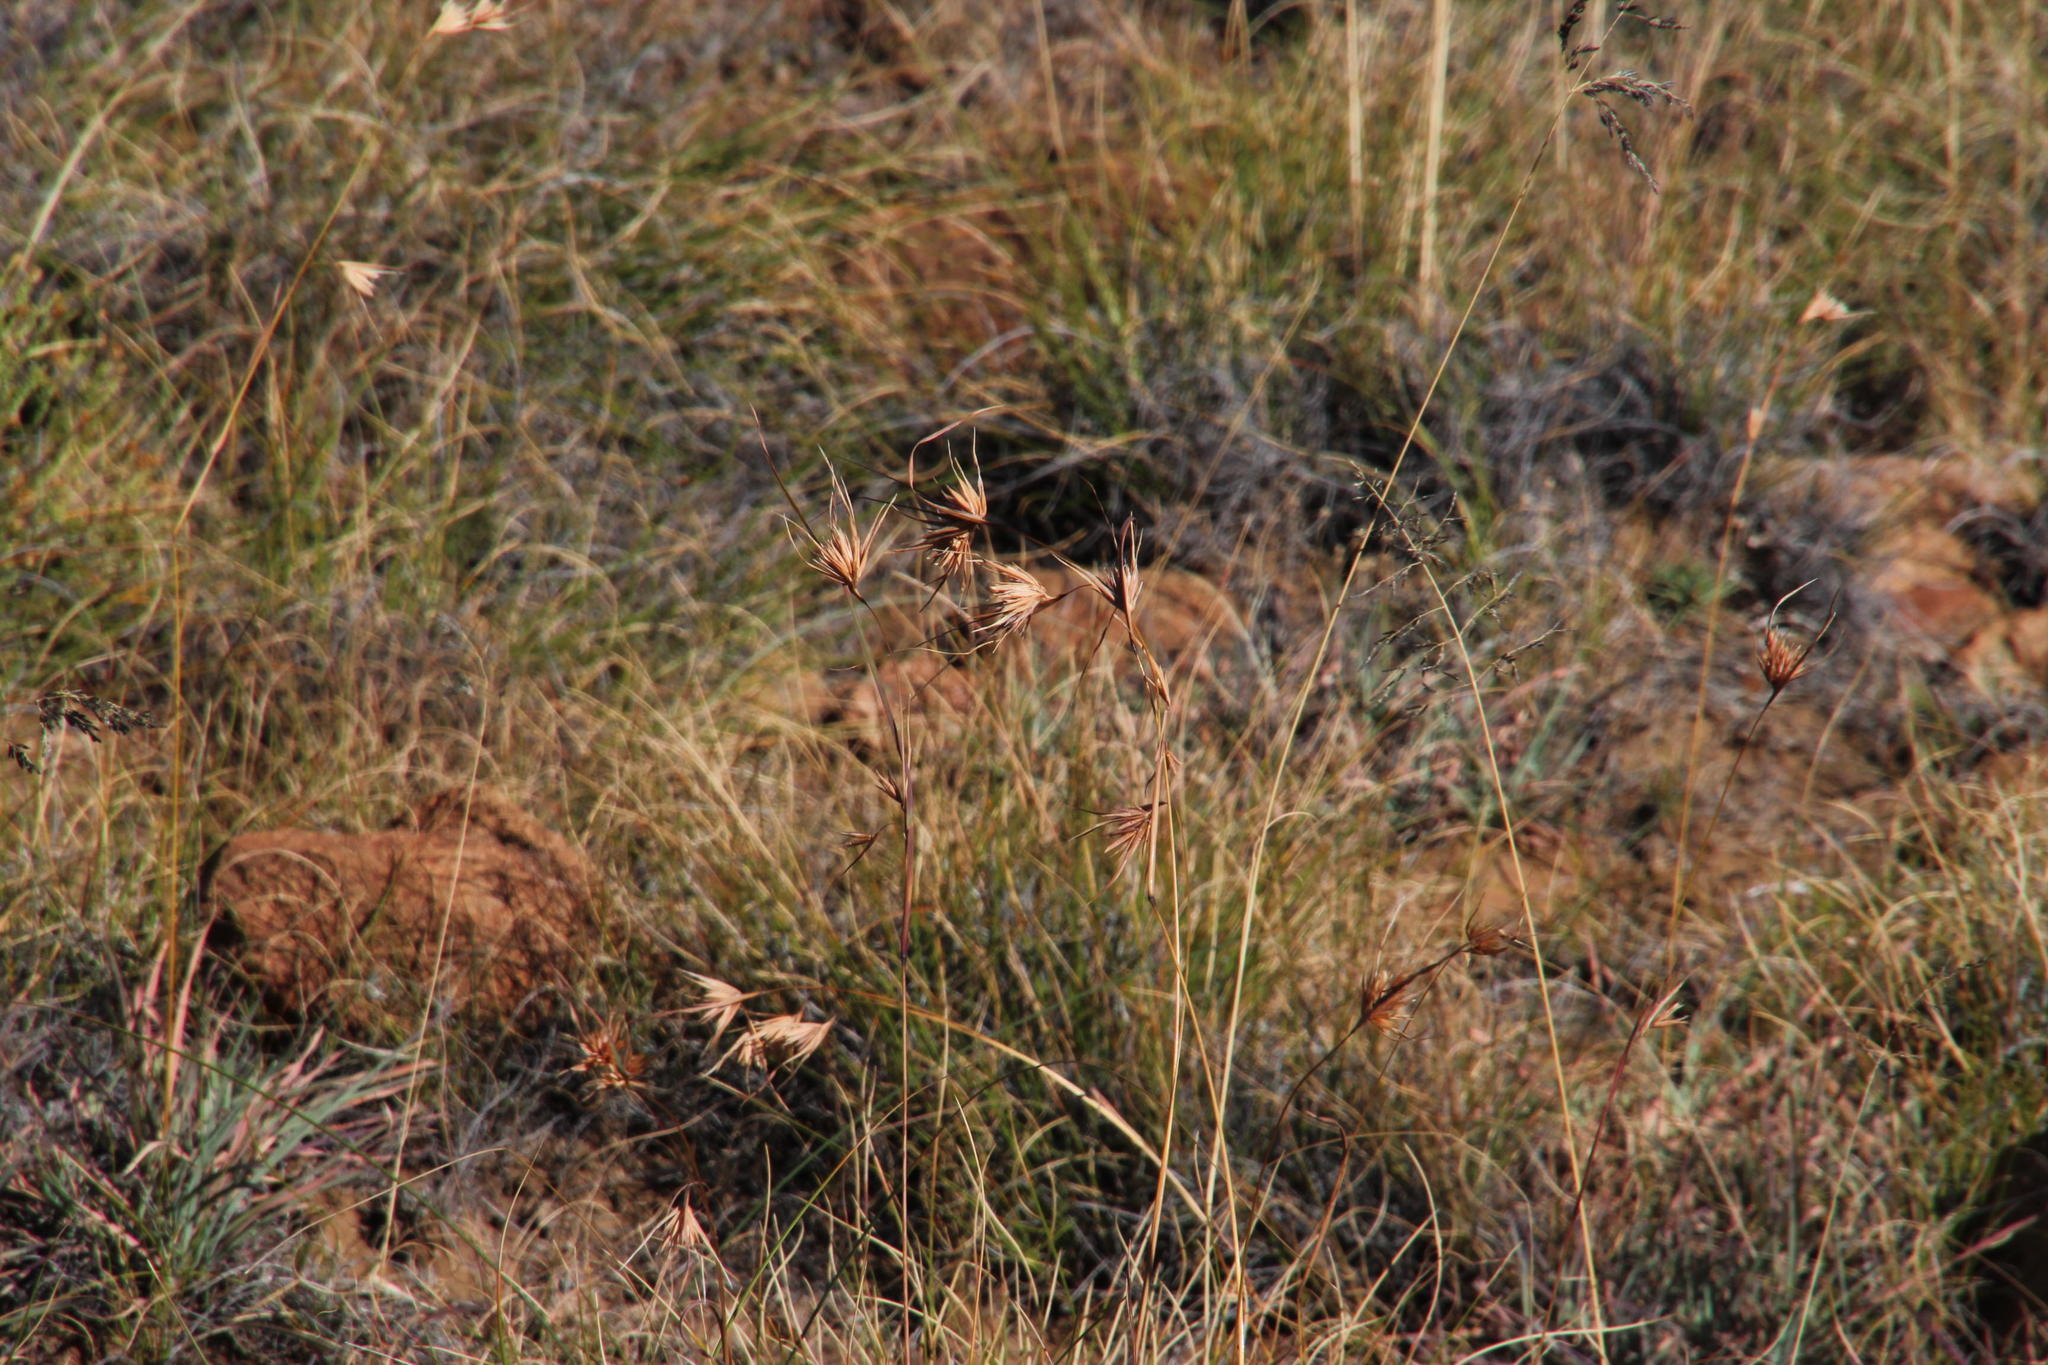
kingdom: Plantae
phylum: Tracheophyta
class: Liliopsida
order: Poales
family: Poaceae
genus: Themeda
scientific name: Themeda triandra
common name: Kangaroo grass
